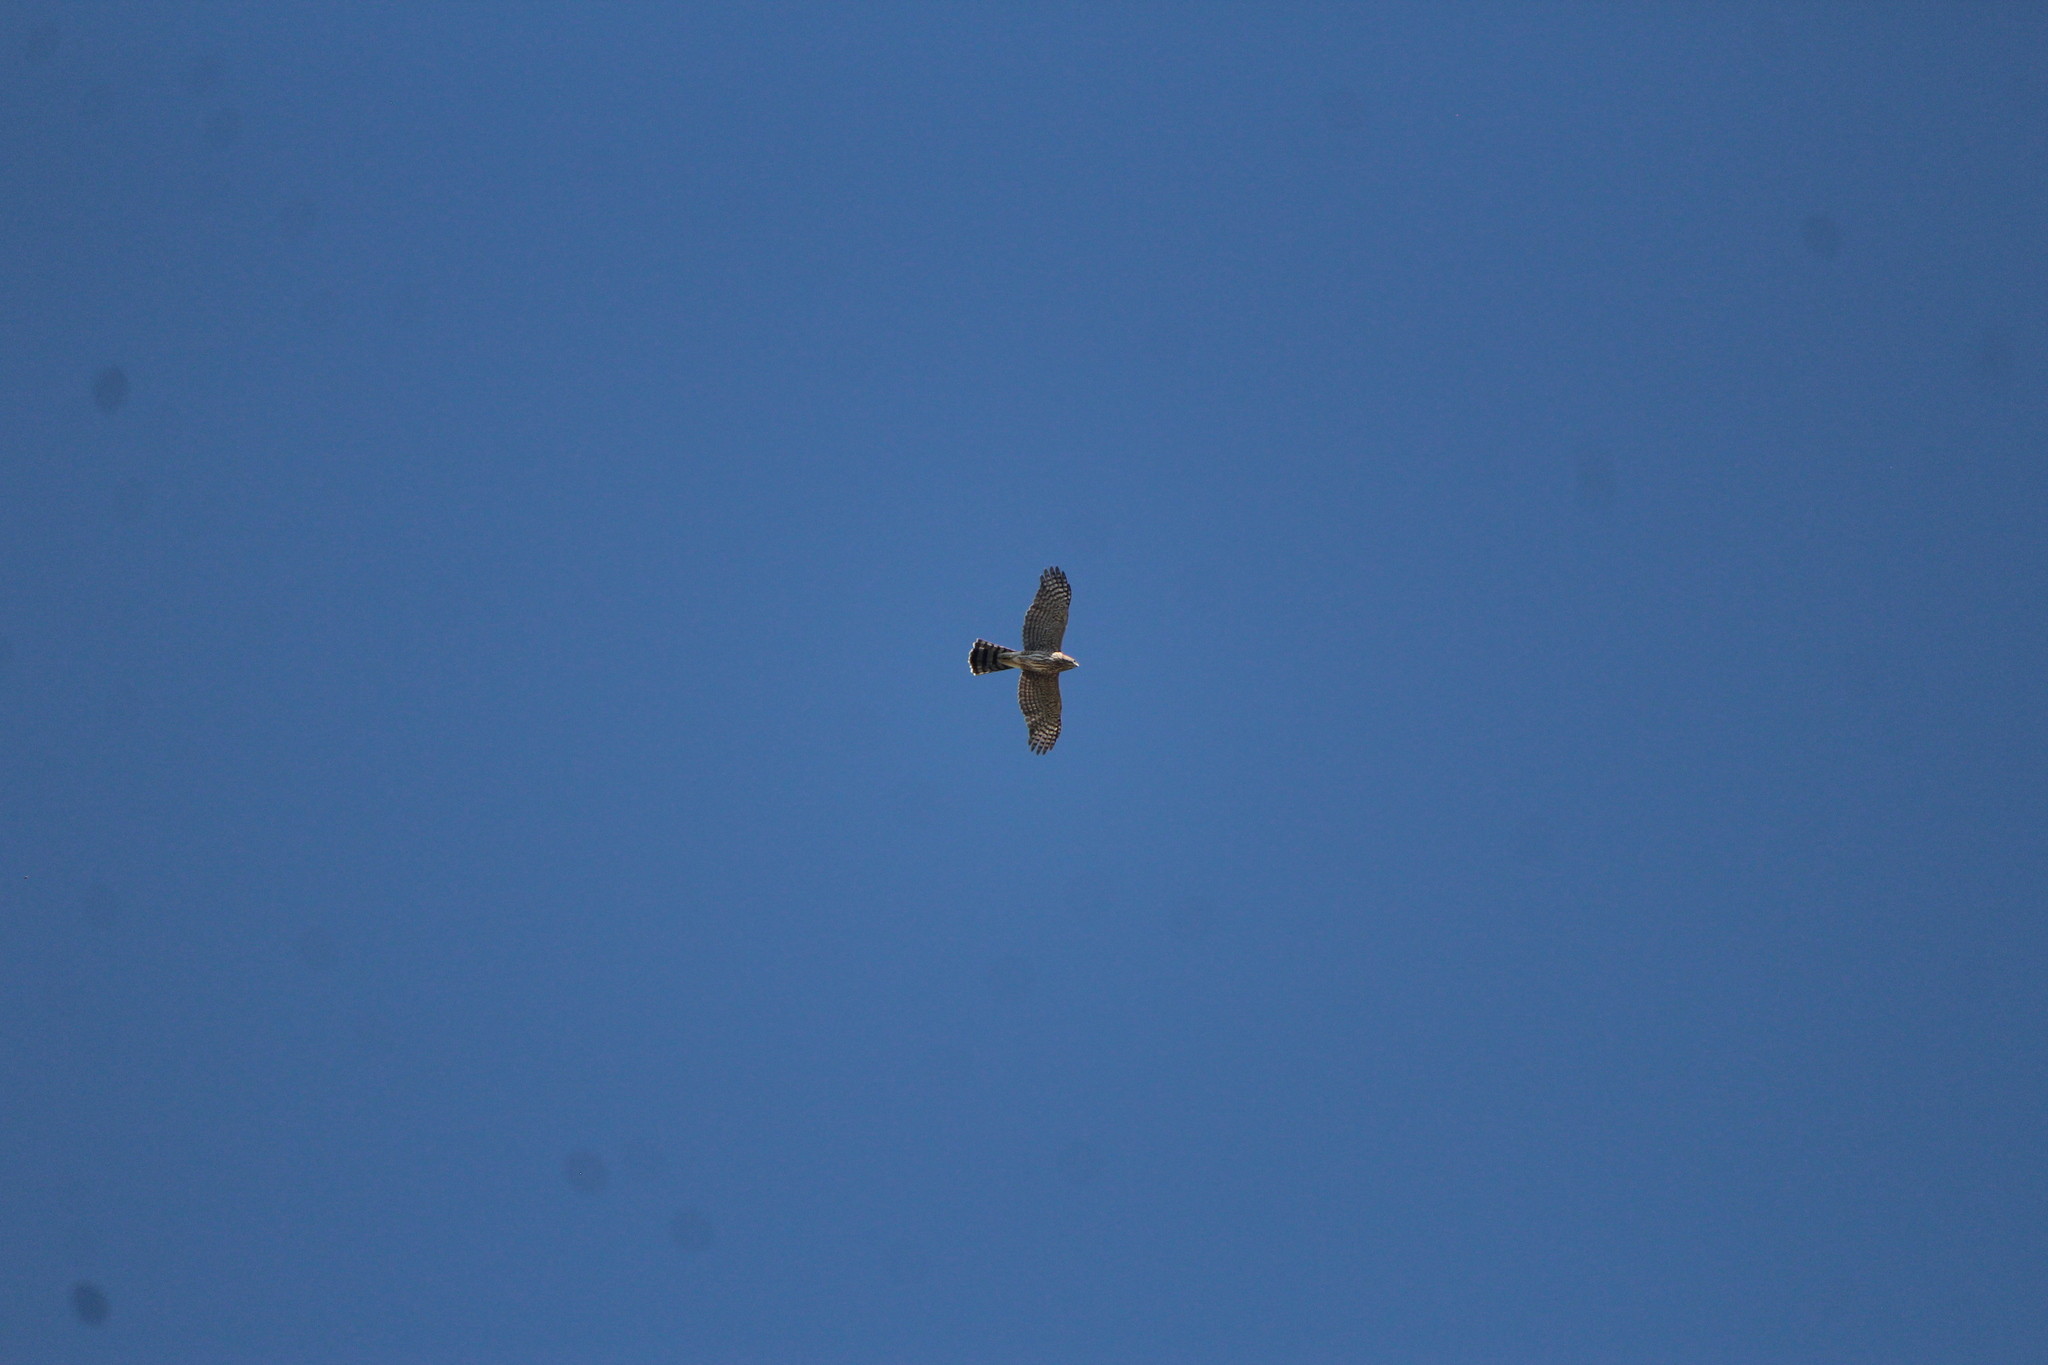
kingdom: Animalia
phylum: Chordata
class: Aves
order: Accipitriformes
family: Accipitridae
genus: Accipiter
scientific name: Accipiter cooperii
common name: Cooper's hawk
